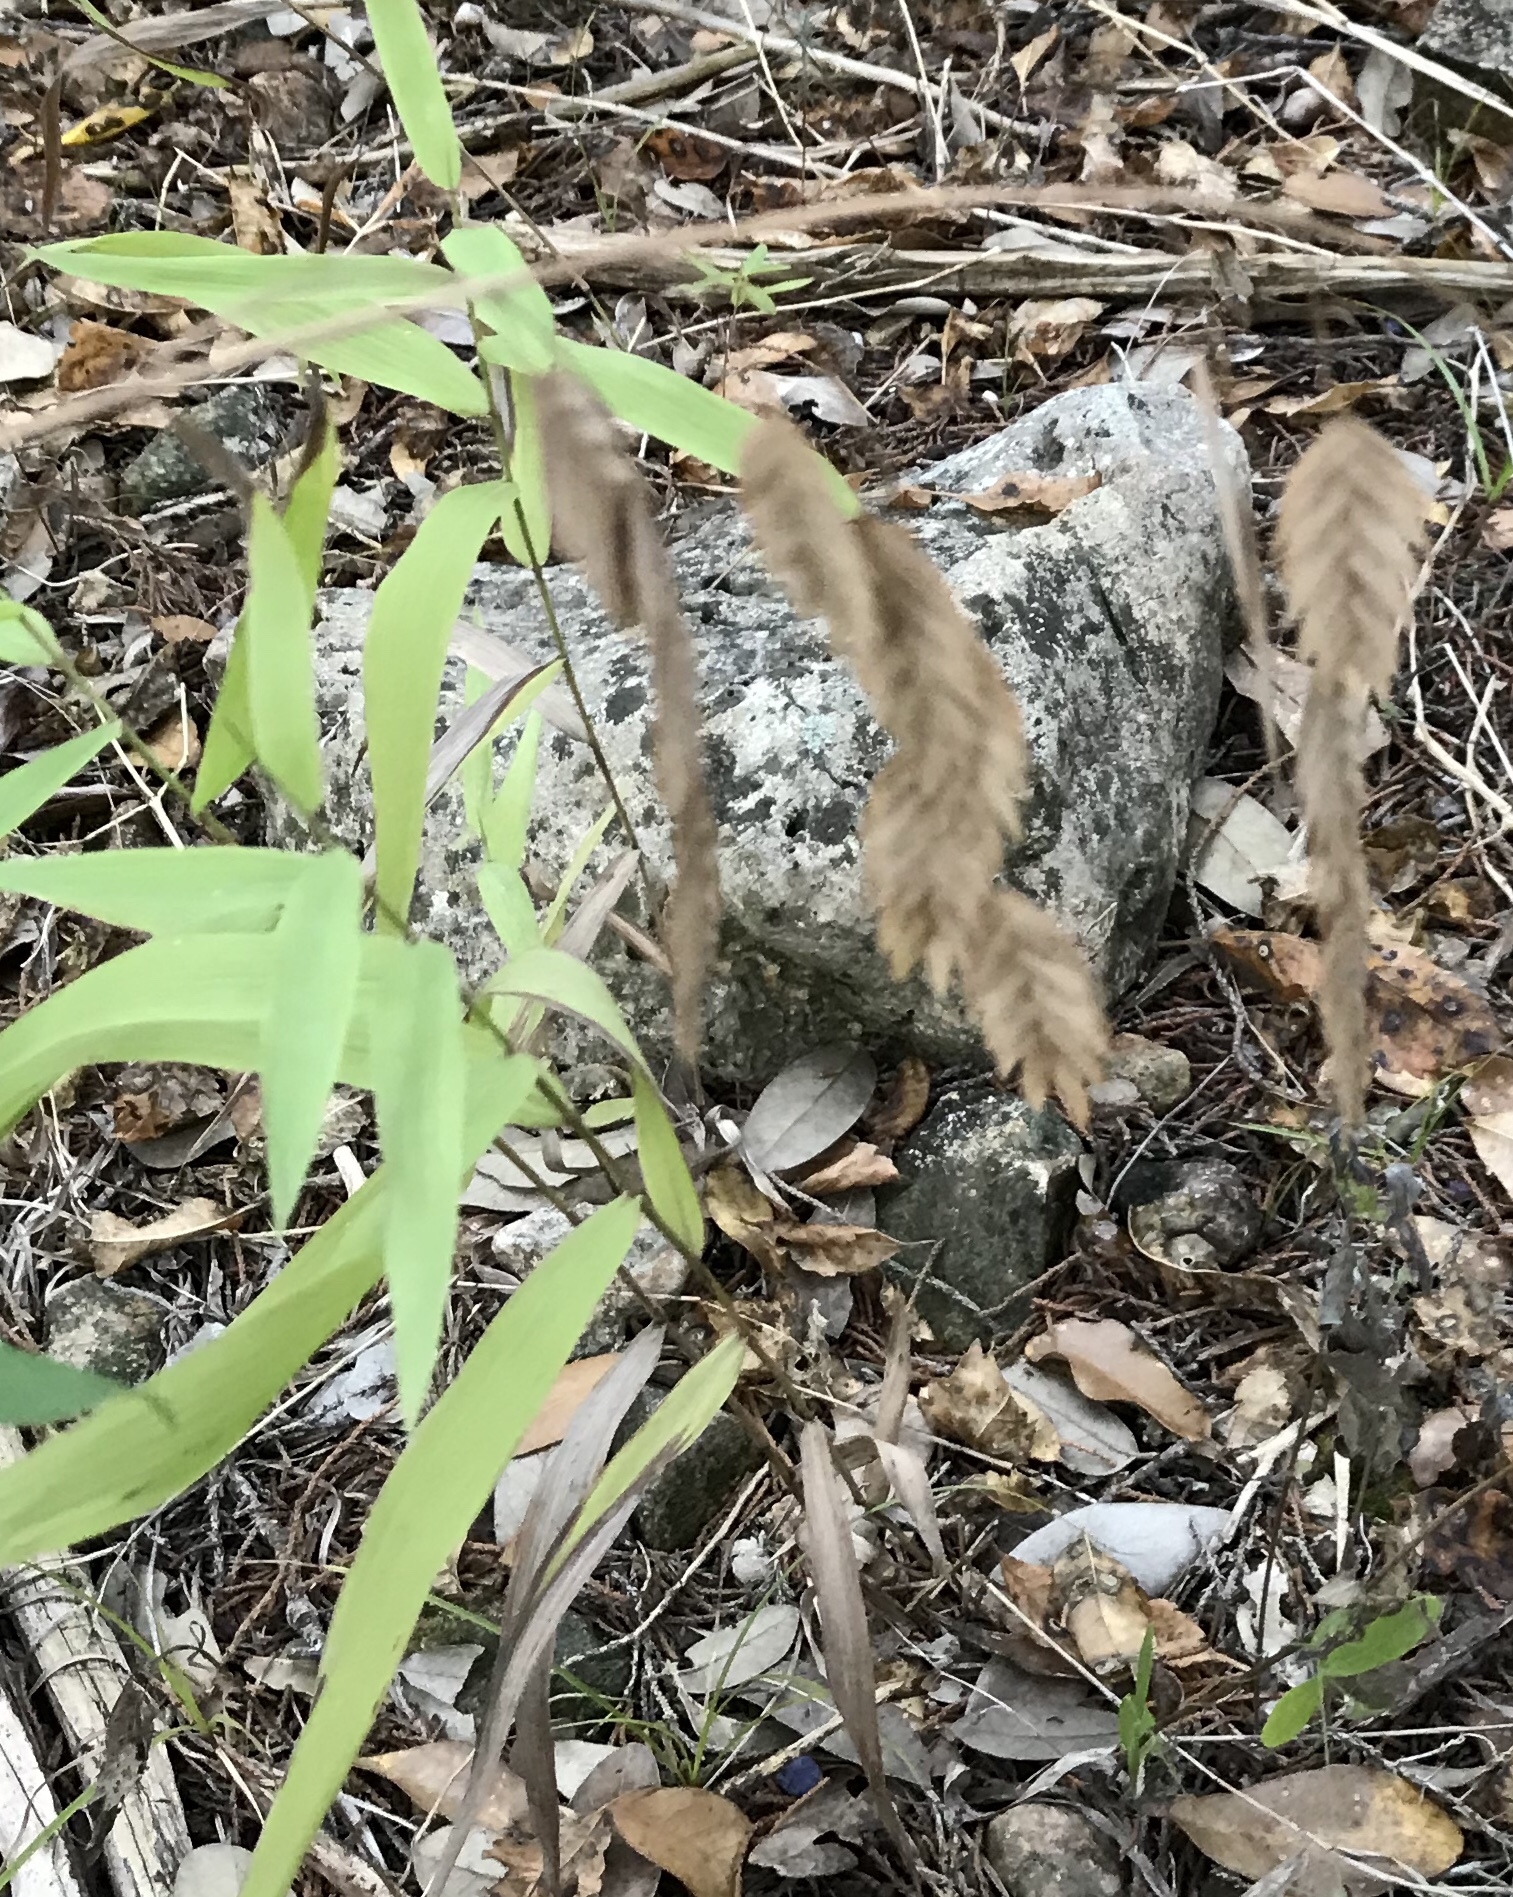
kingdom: Plantae
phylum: Tracheophyta
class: Liliopsida
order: Poales
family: Poaceae
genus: Chasmanthium
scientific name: Chasmanthium latifolium
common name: Broad-leaved chasmanthium
